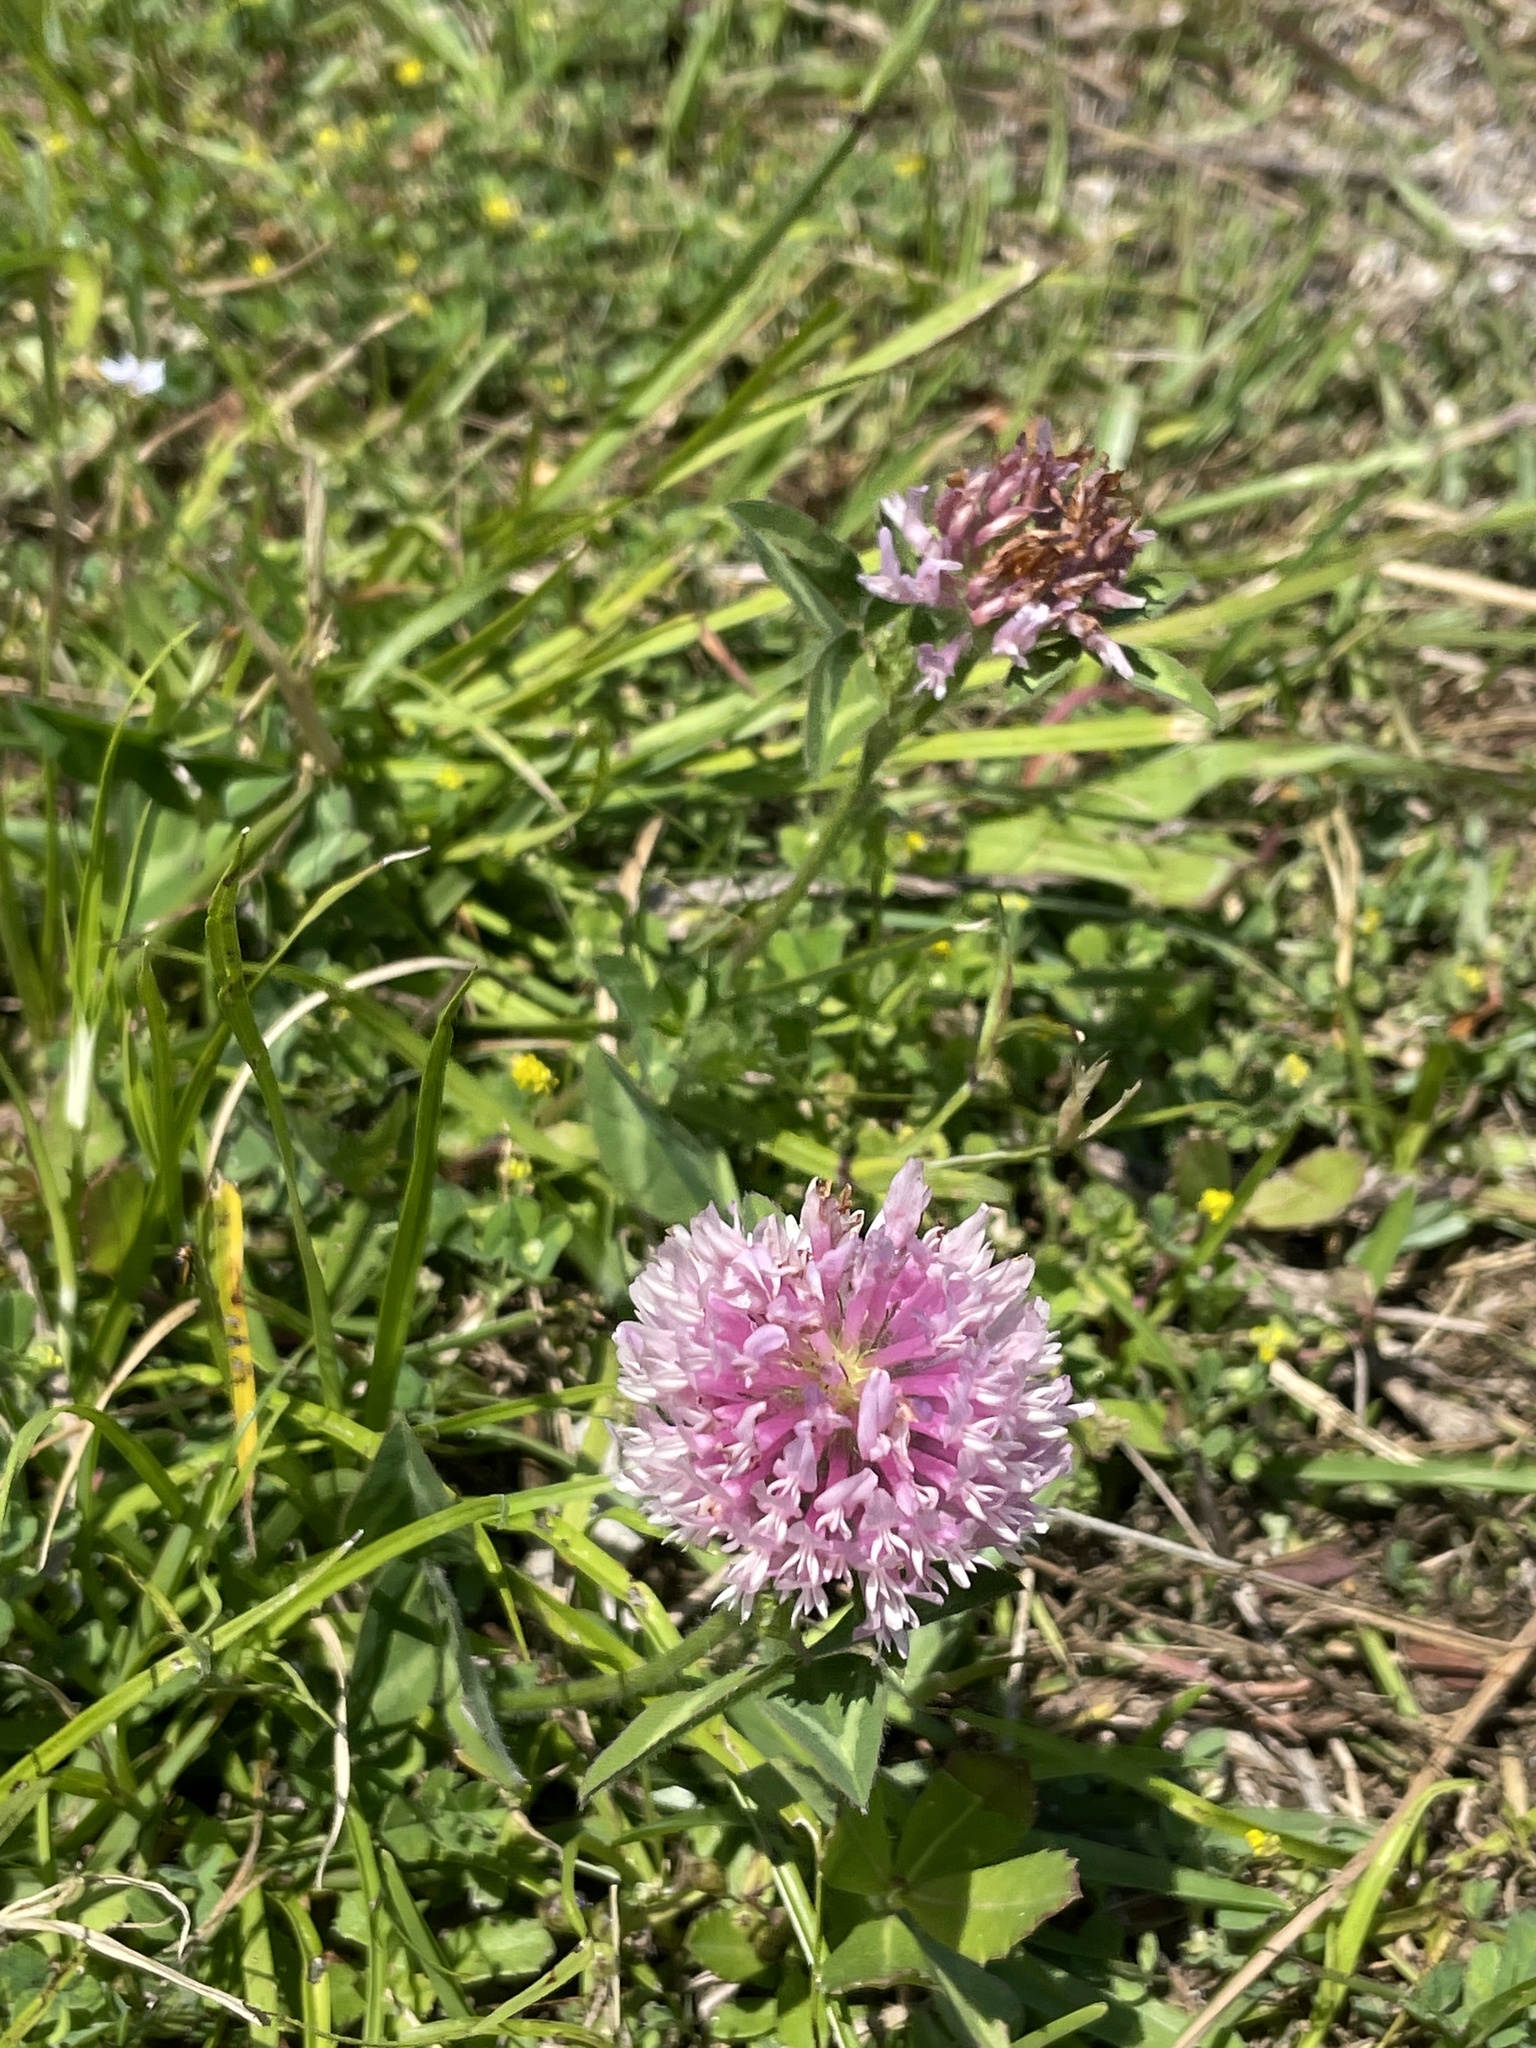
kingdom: Plantae
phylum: Tracheophyta
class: Magnoliopsida
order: Fabales
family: Fabaceae
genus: Trifolium
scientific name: Trifolium pratense
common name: Red clover
